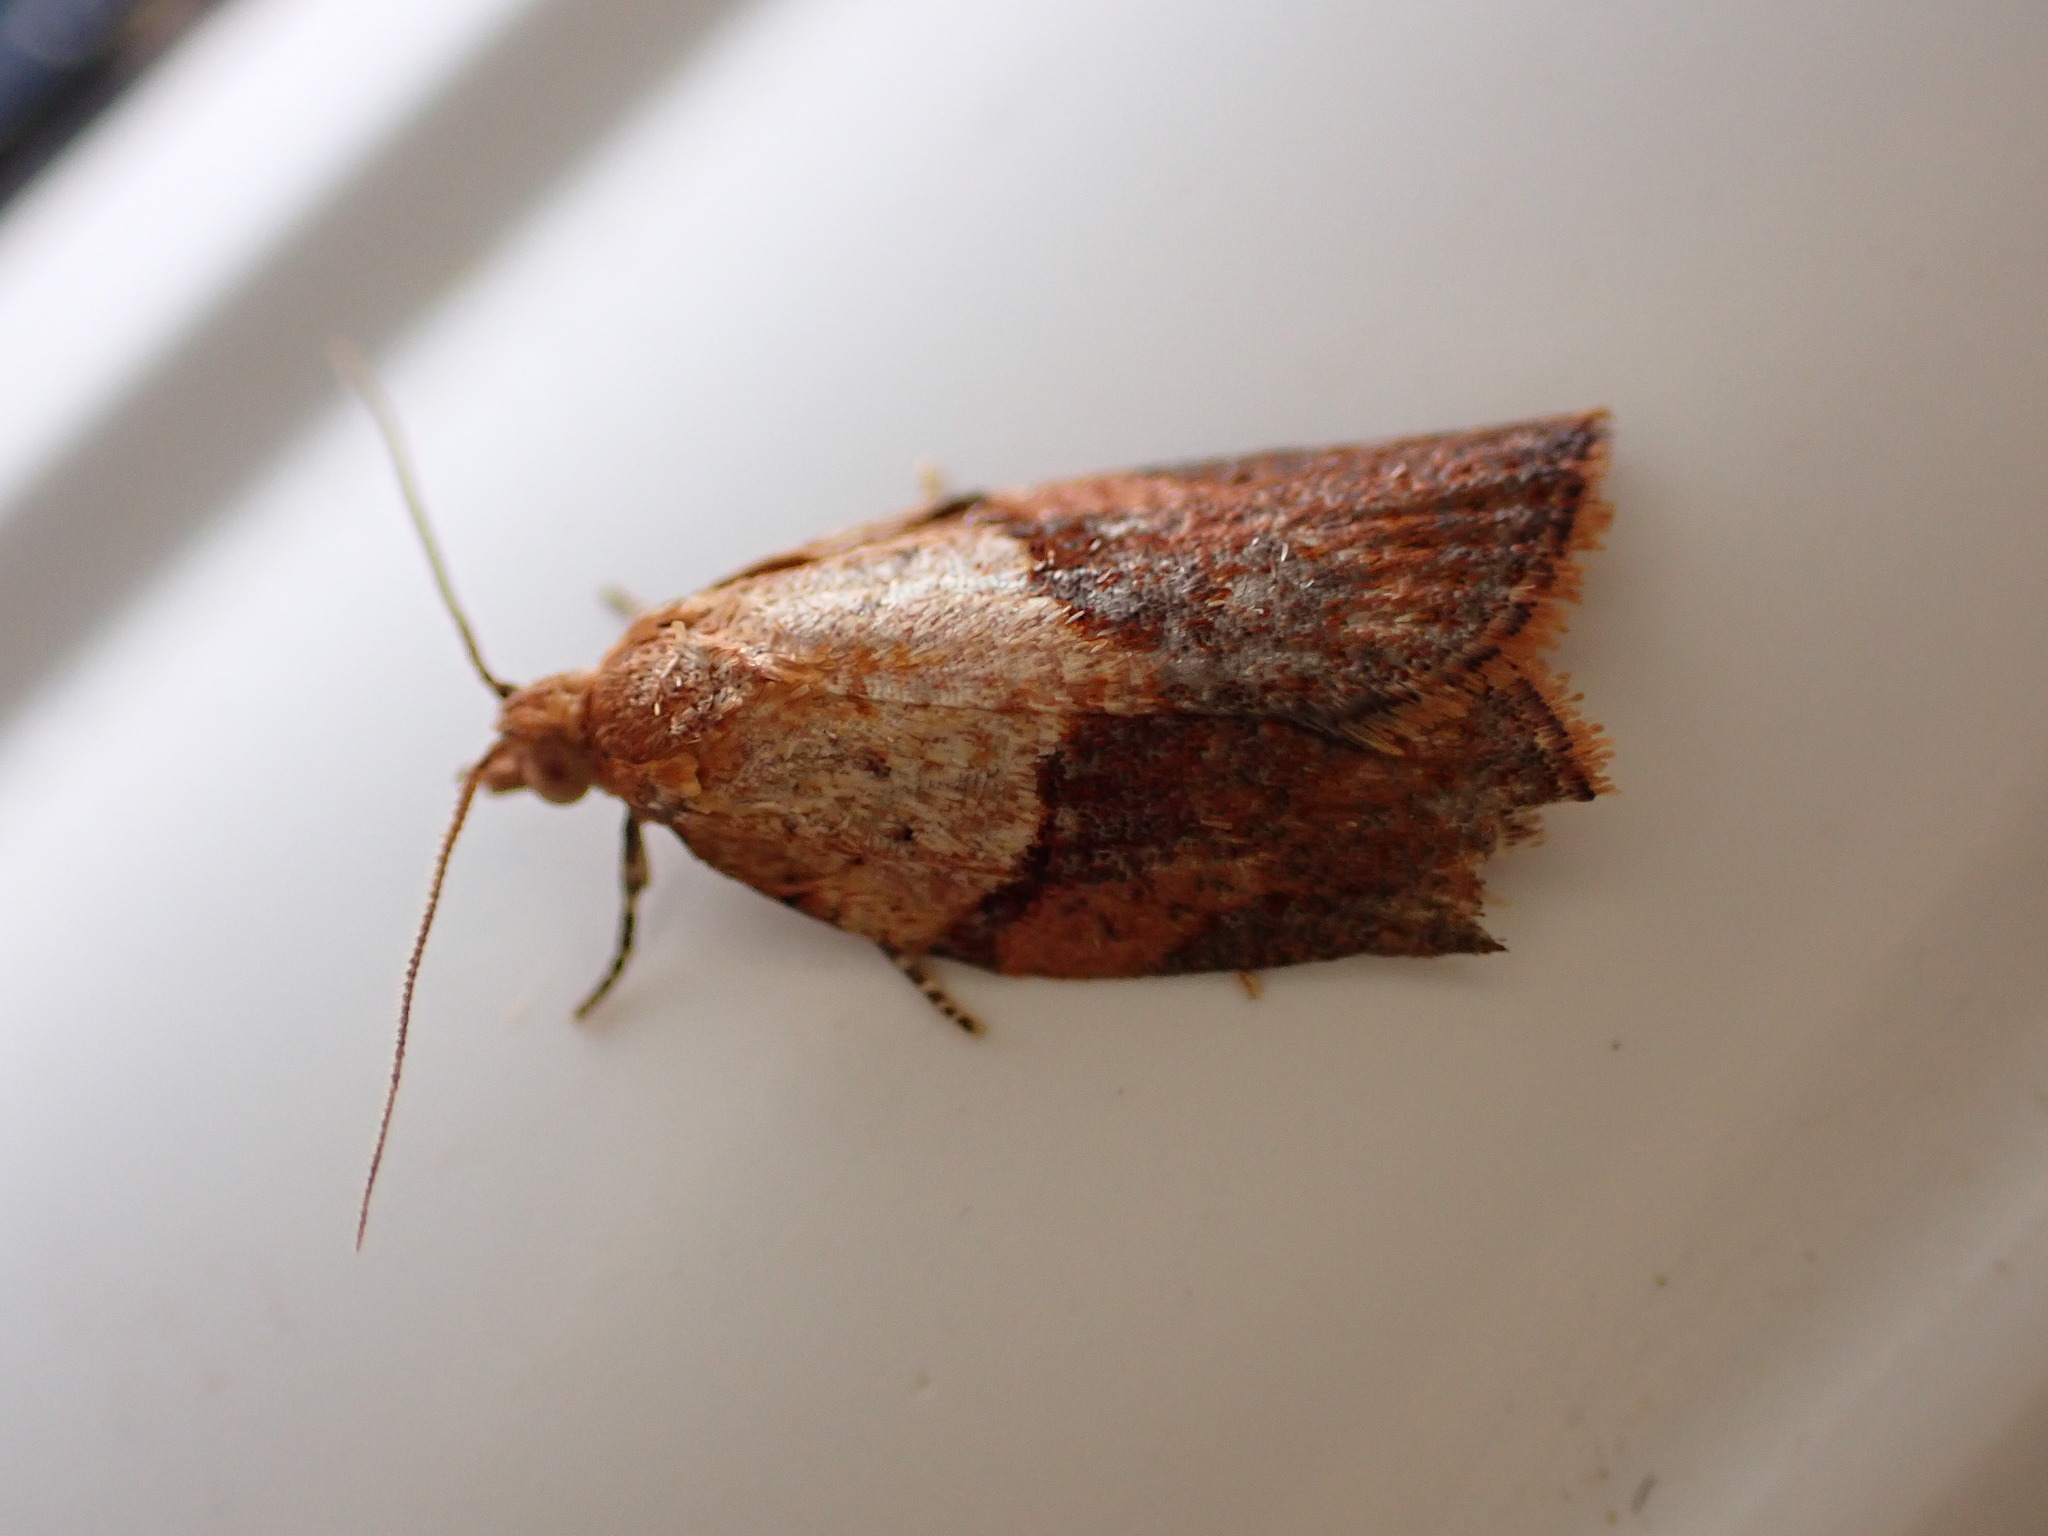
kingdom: Animalia
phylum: Arthropoda
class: Insecta
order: Lepidoptera
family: Tortricidae
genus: Epiphyas
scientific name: Epiphyas postvittana
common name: Light brown apple moth
